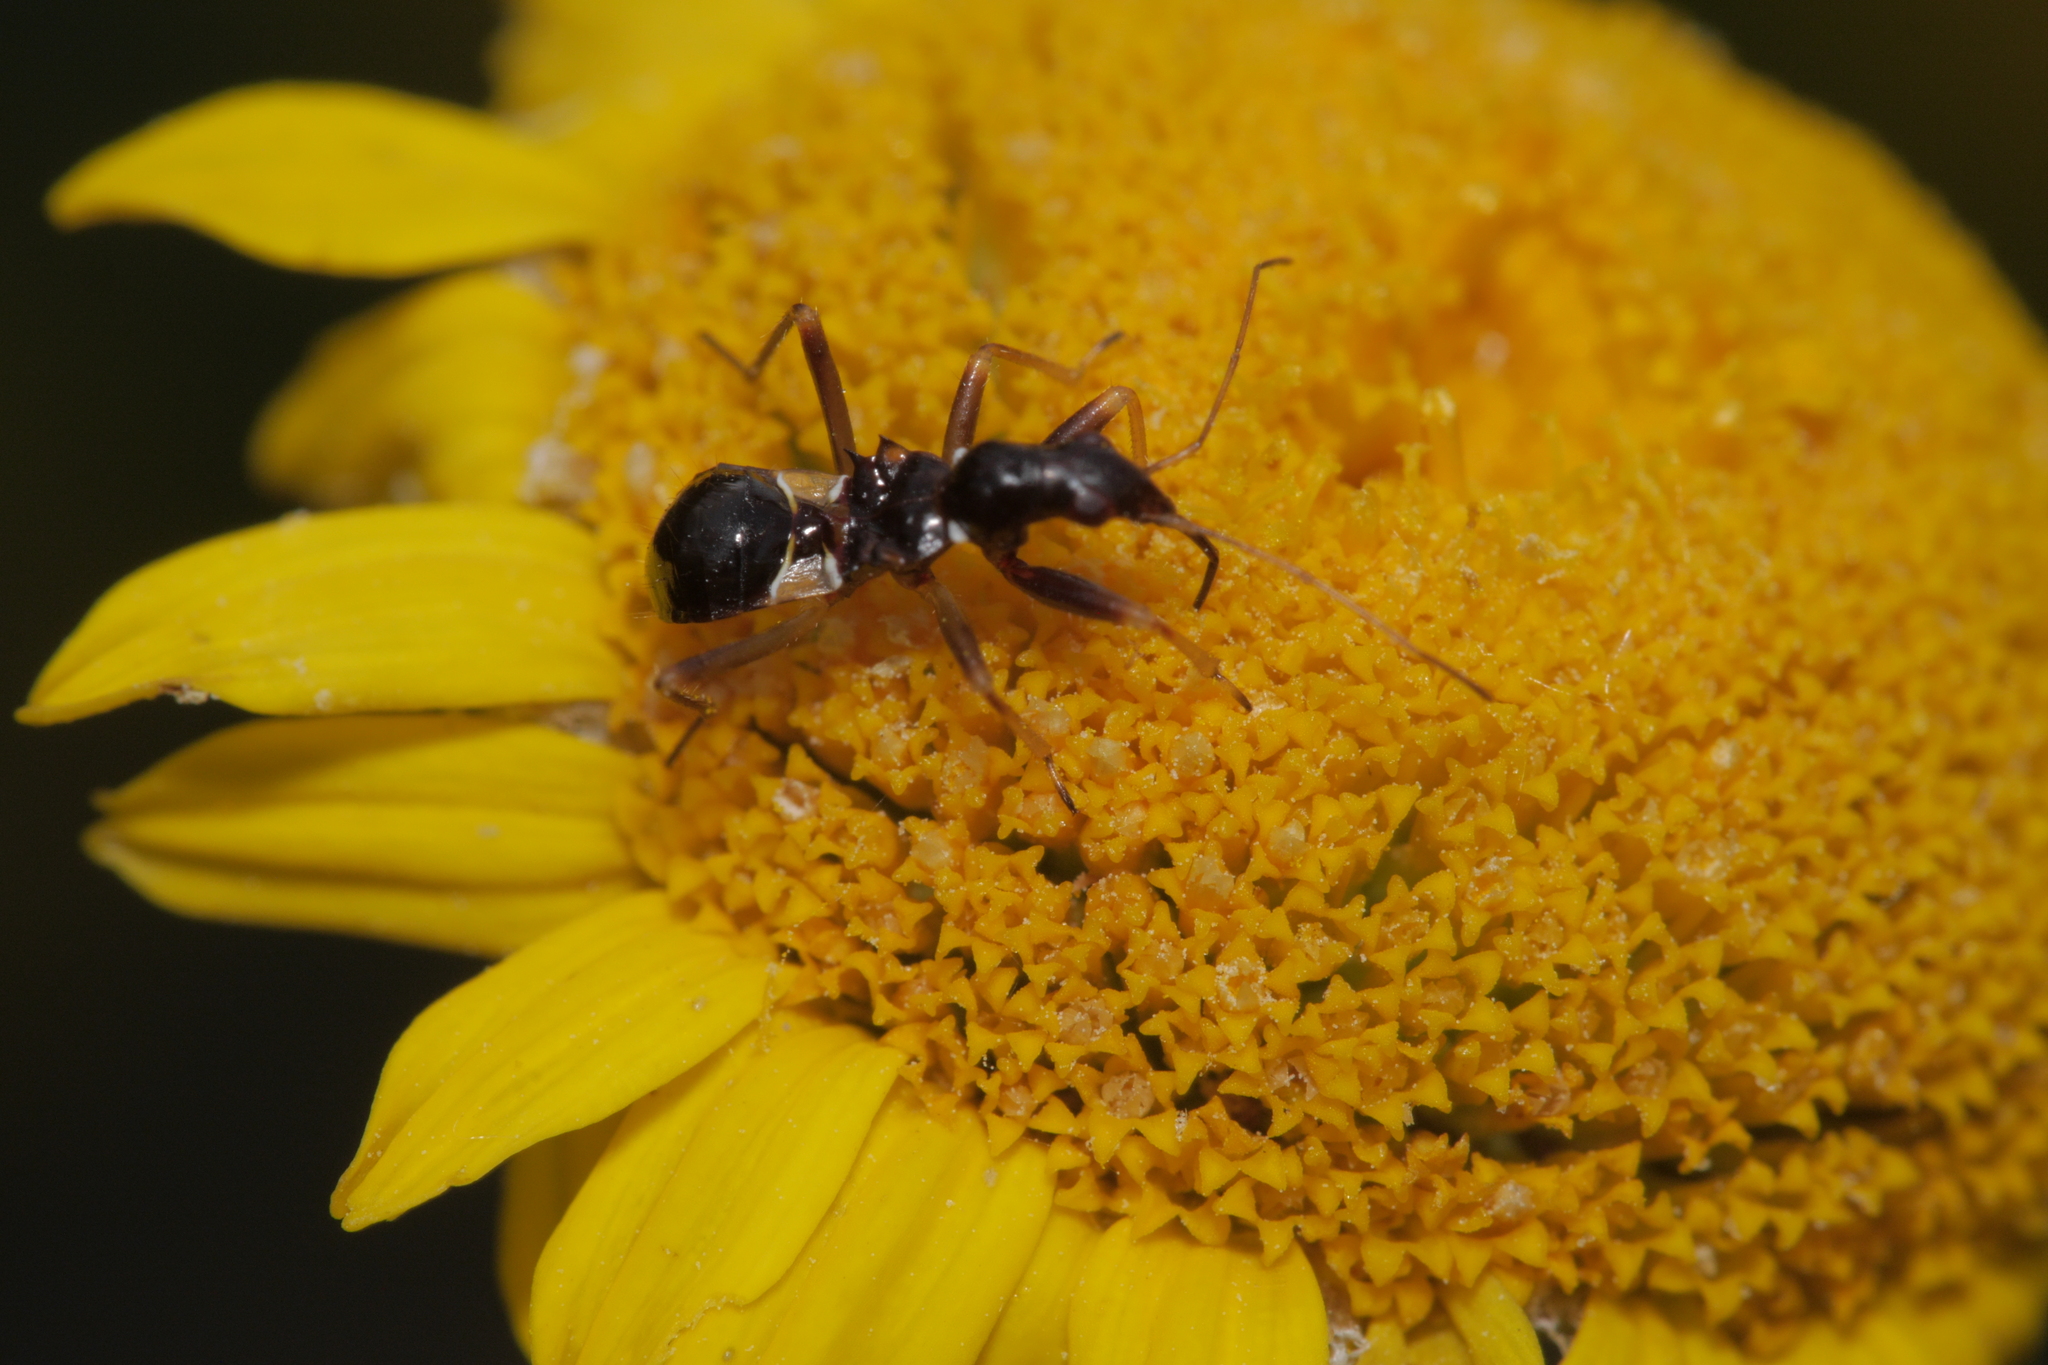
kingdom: Animalia
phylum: Arthropoda
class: Insecta
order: Hemiptera
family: Nabidae
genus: Himacerus
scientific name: Himacerus mirmicoides
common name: Ant damsel bug
